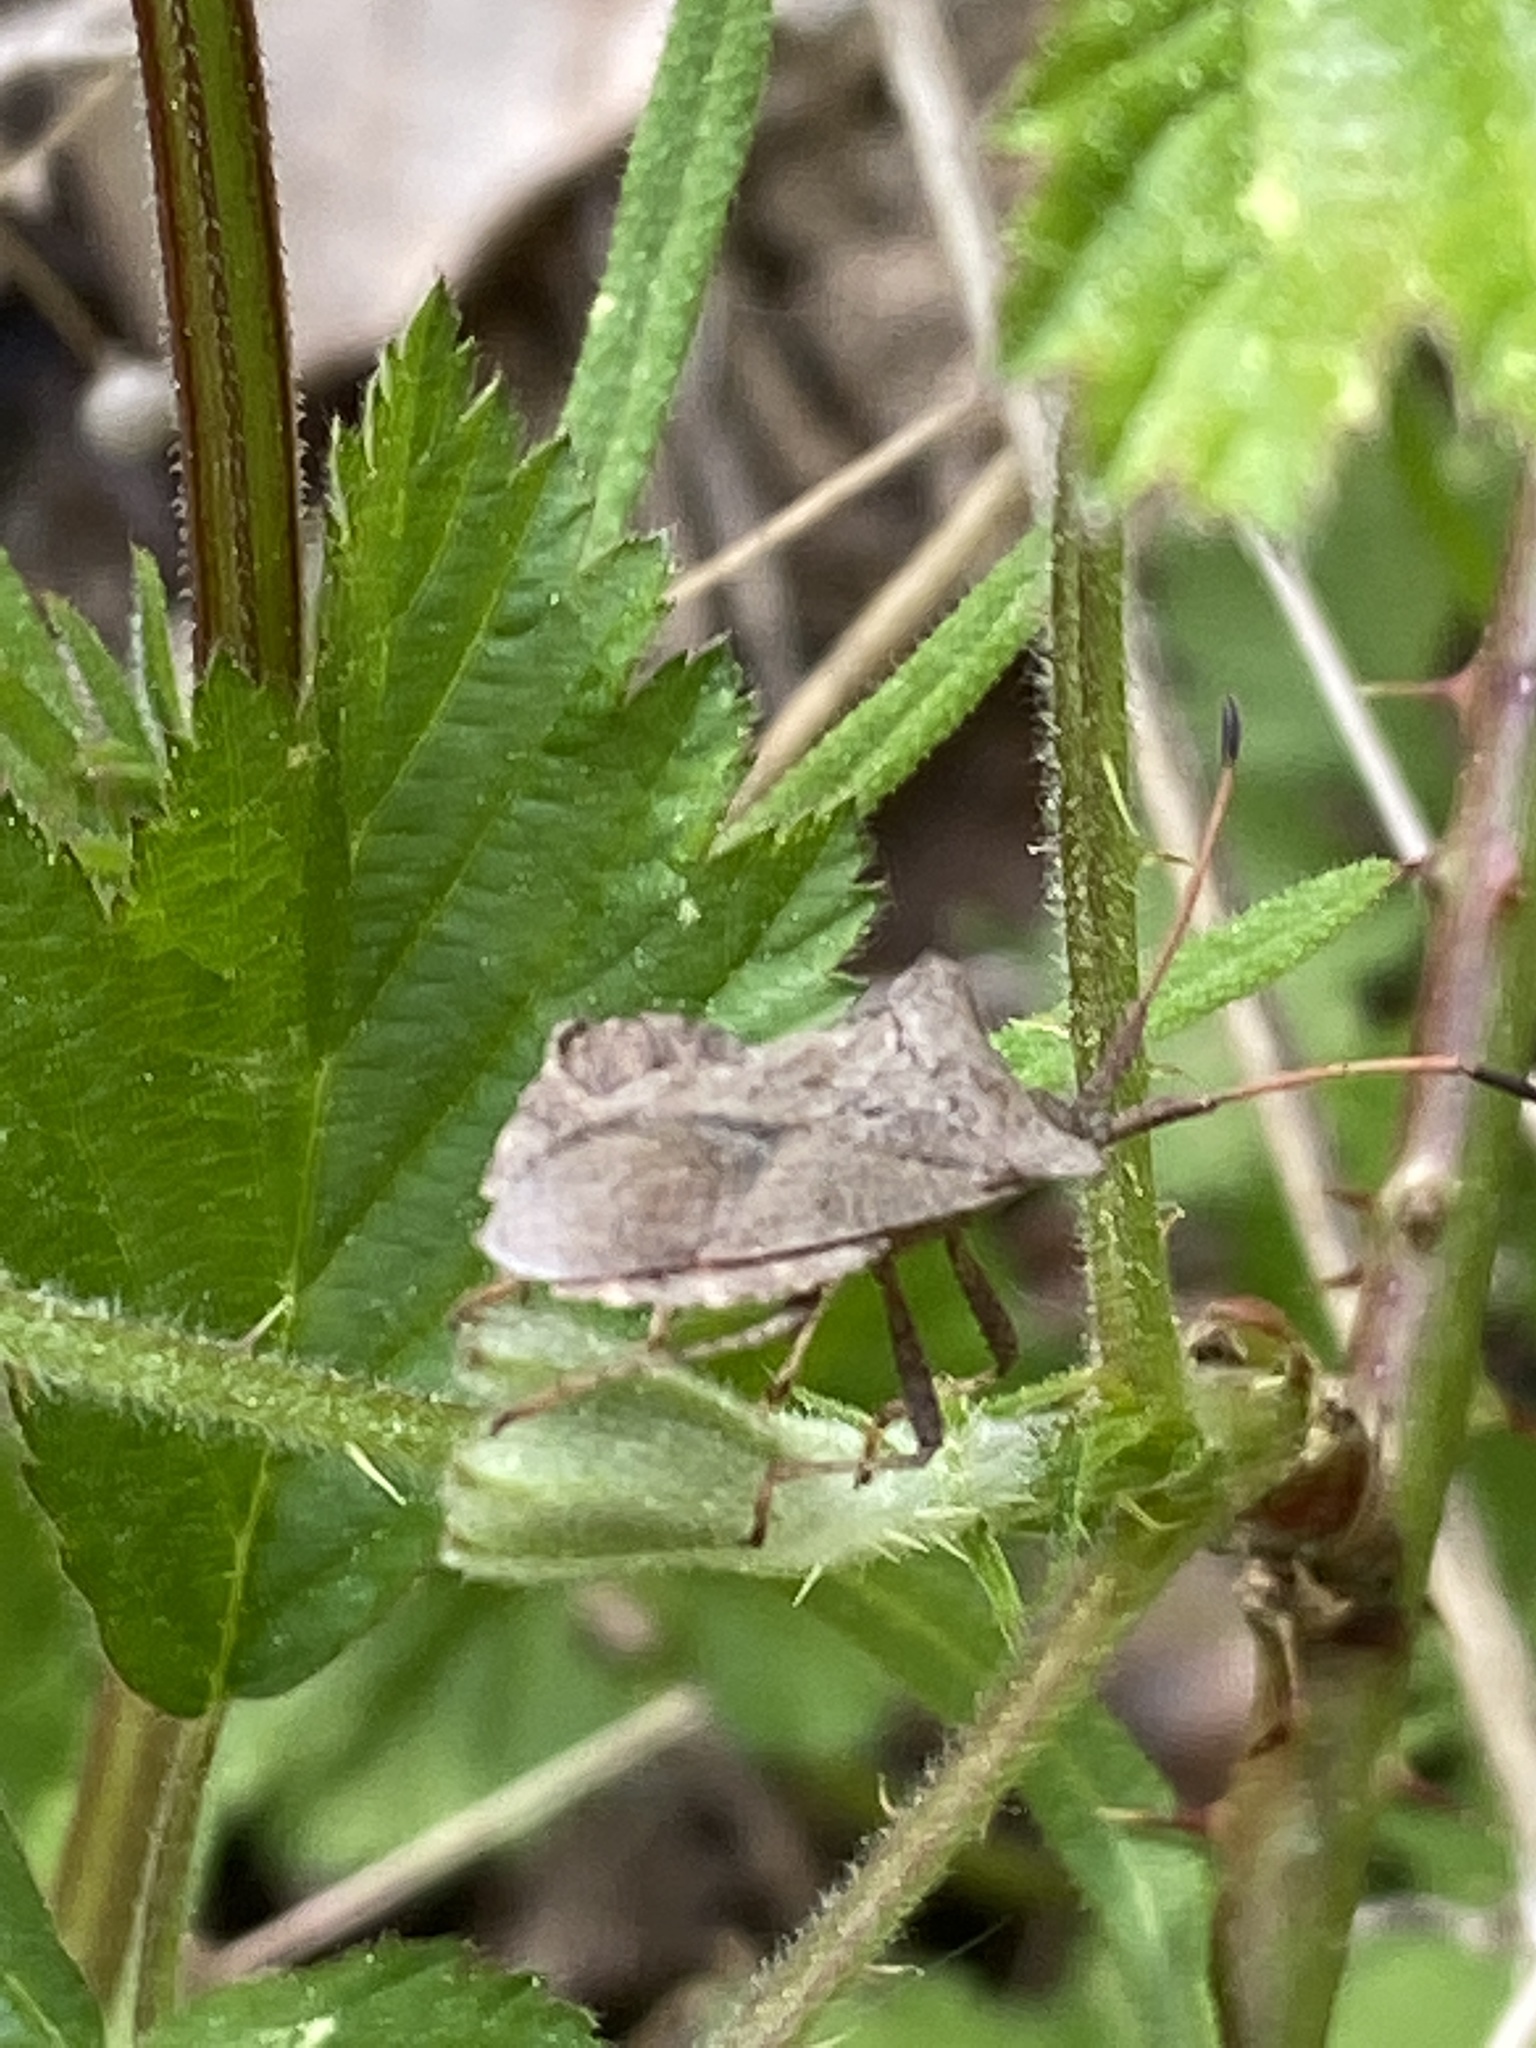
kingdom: Animalia
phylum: Arthropoda
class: Insecta
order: Hemiptera
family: Coreidae
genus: Coreus
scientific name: Coreus marginatus
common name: Dock bug
